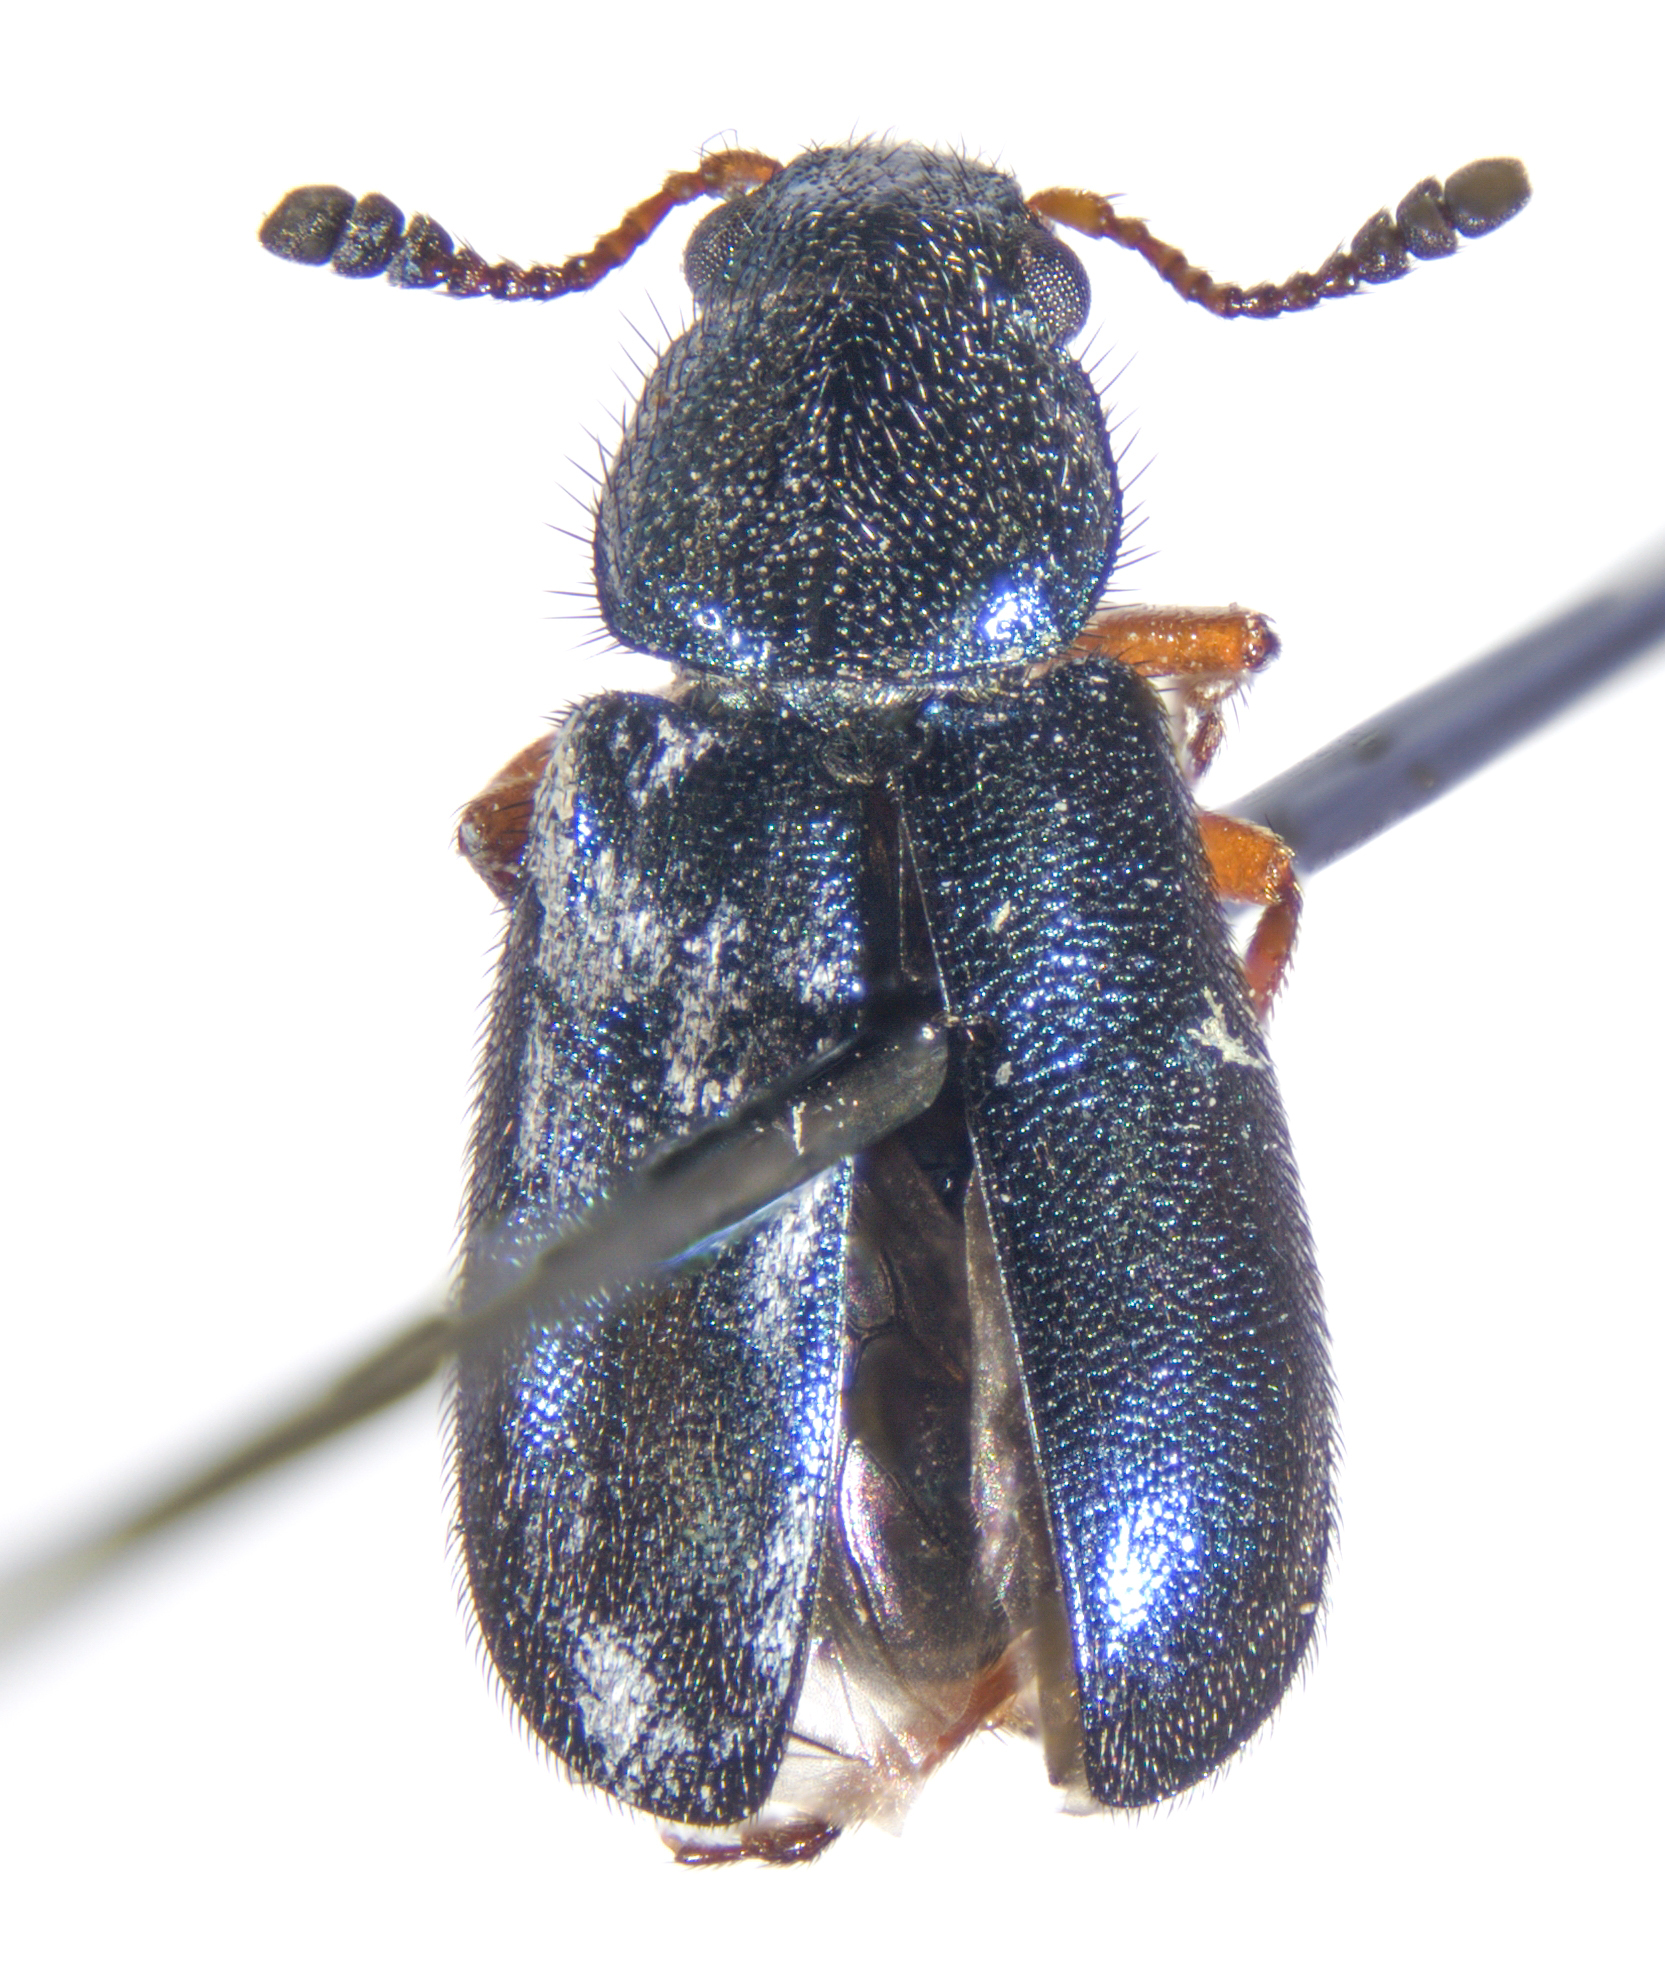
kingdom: Animalia
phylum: Arthropoda
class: Insecta
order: Coleoptera
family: Cleridae
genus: Necrobia
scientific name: Necrobia rufipes
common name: Red-legged ham beetle
